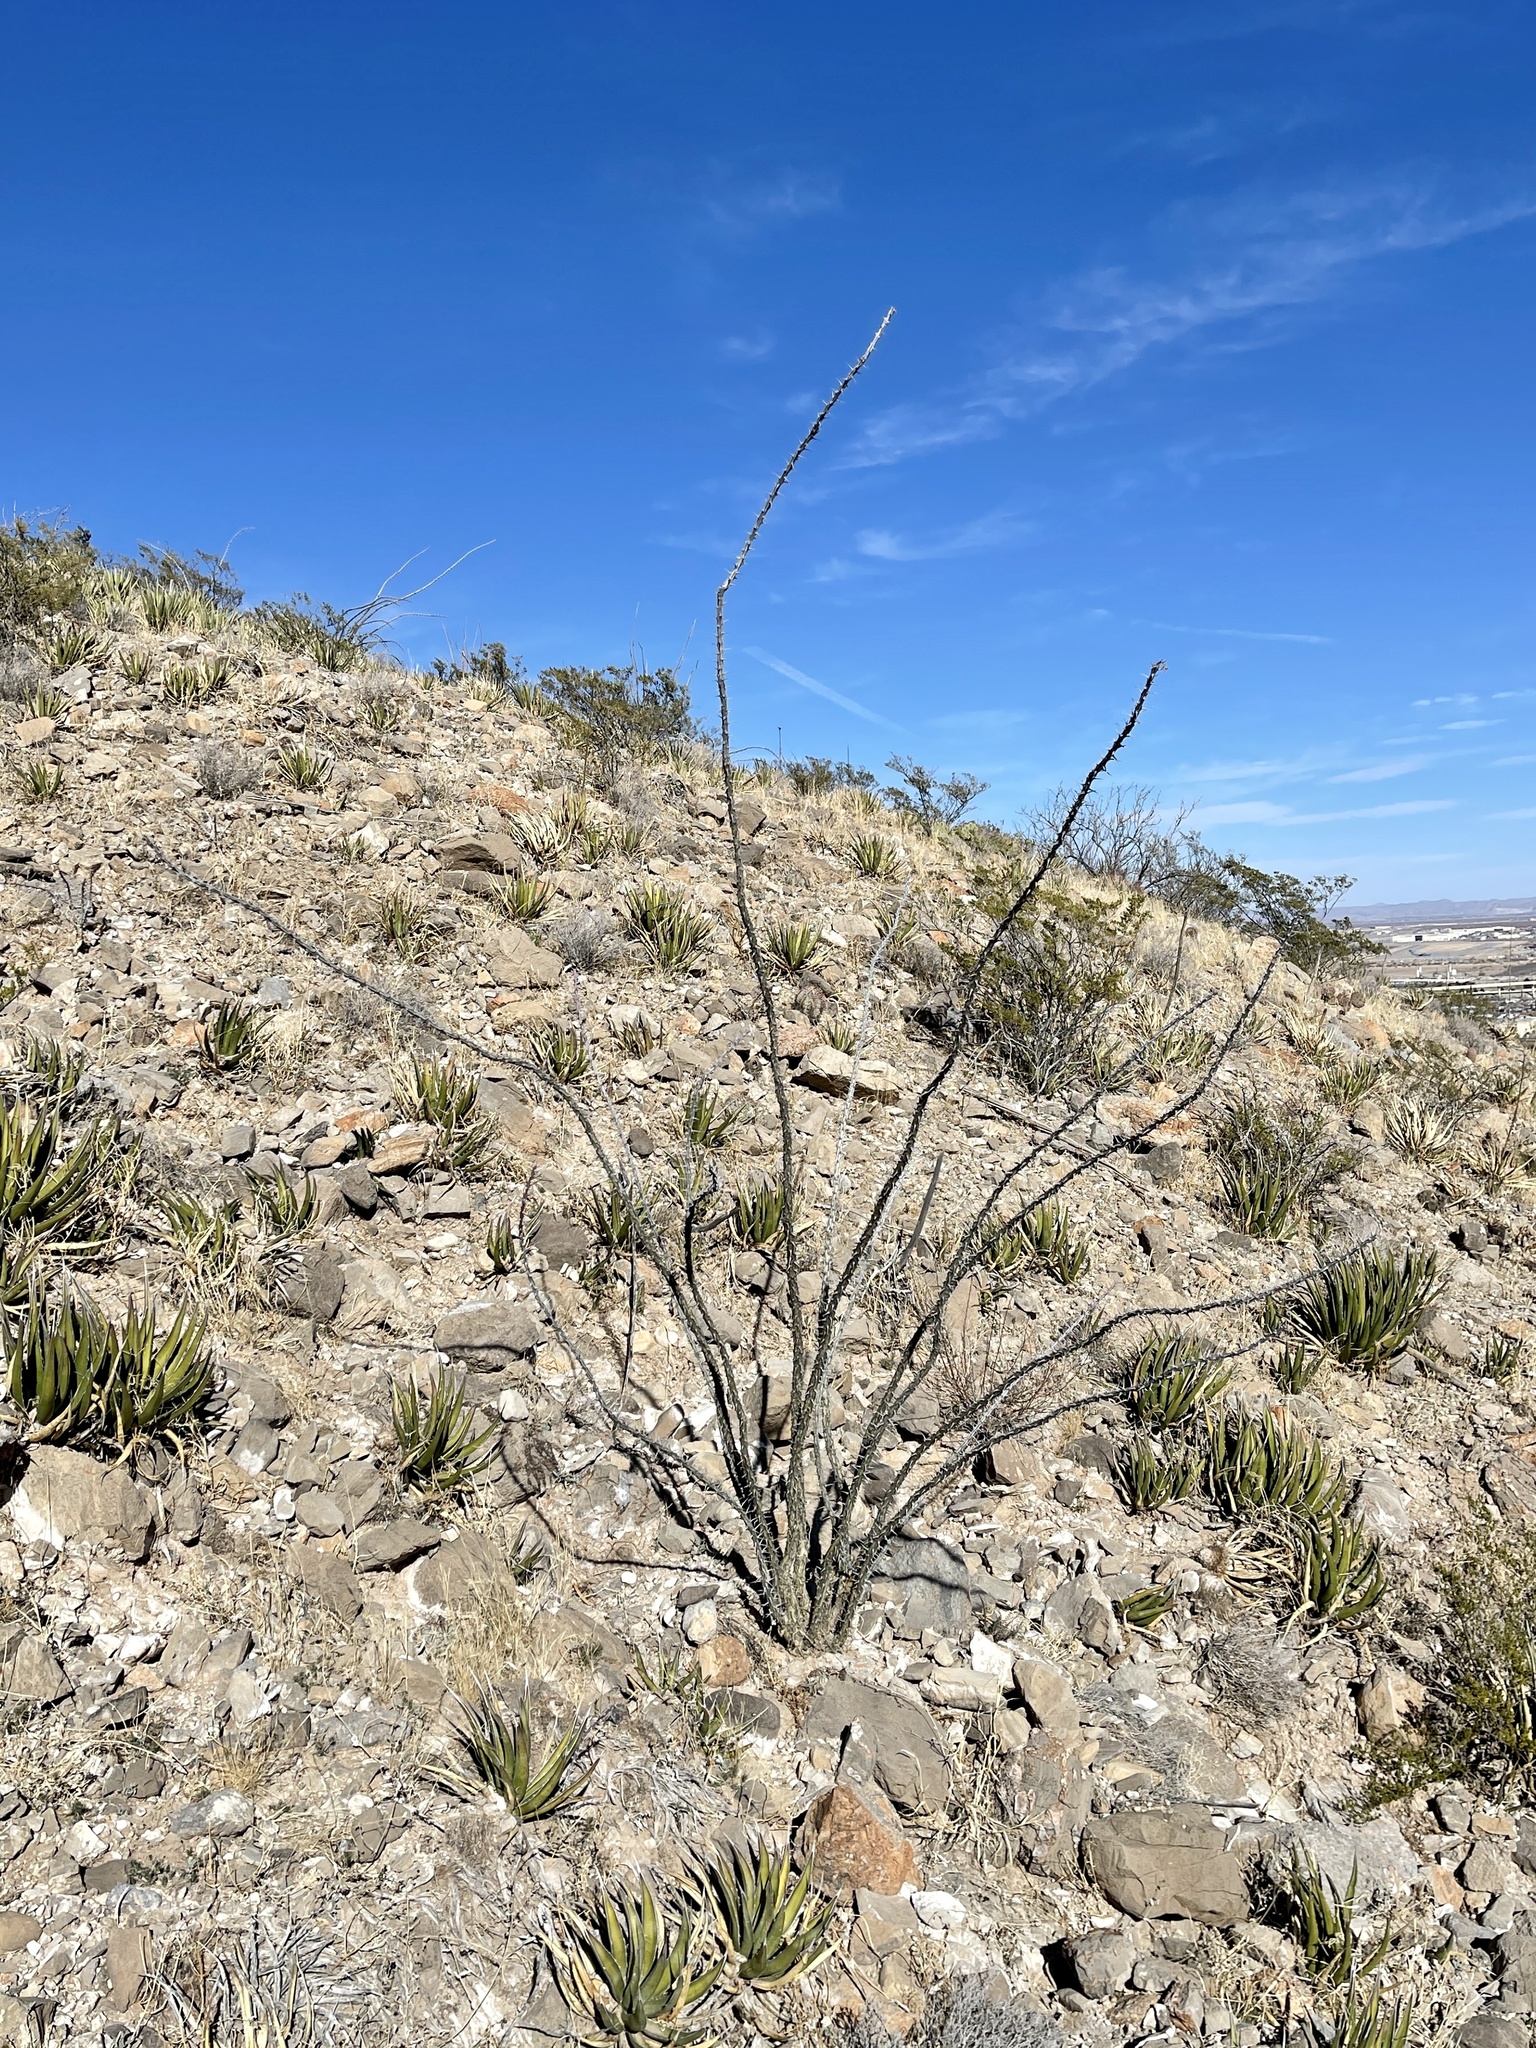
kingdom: Plantae
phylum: Tracheophyta
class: Magnoliopsida
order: Ericales
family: Fouquieriaceae
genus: Fouquieria
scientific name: Fouquieria splendens
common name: Vine-cactus
